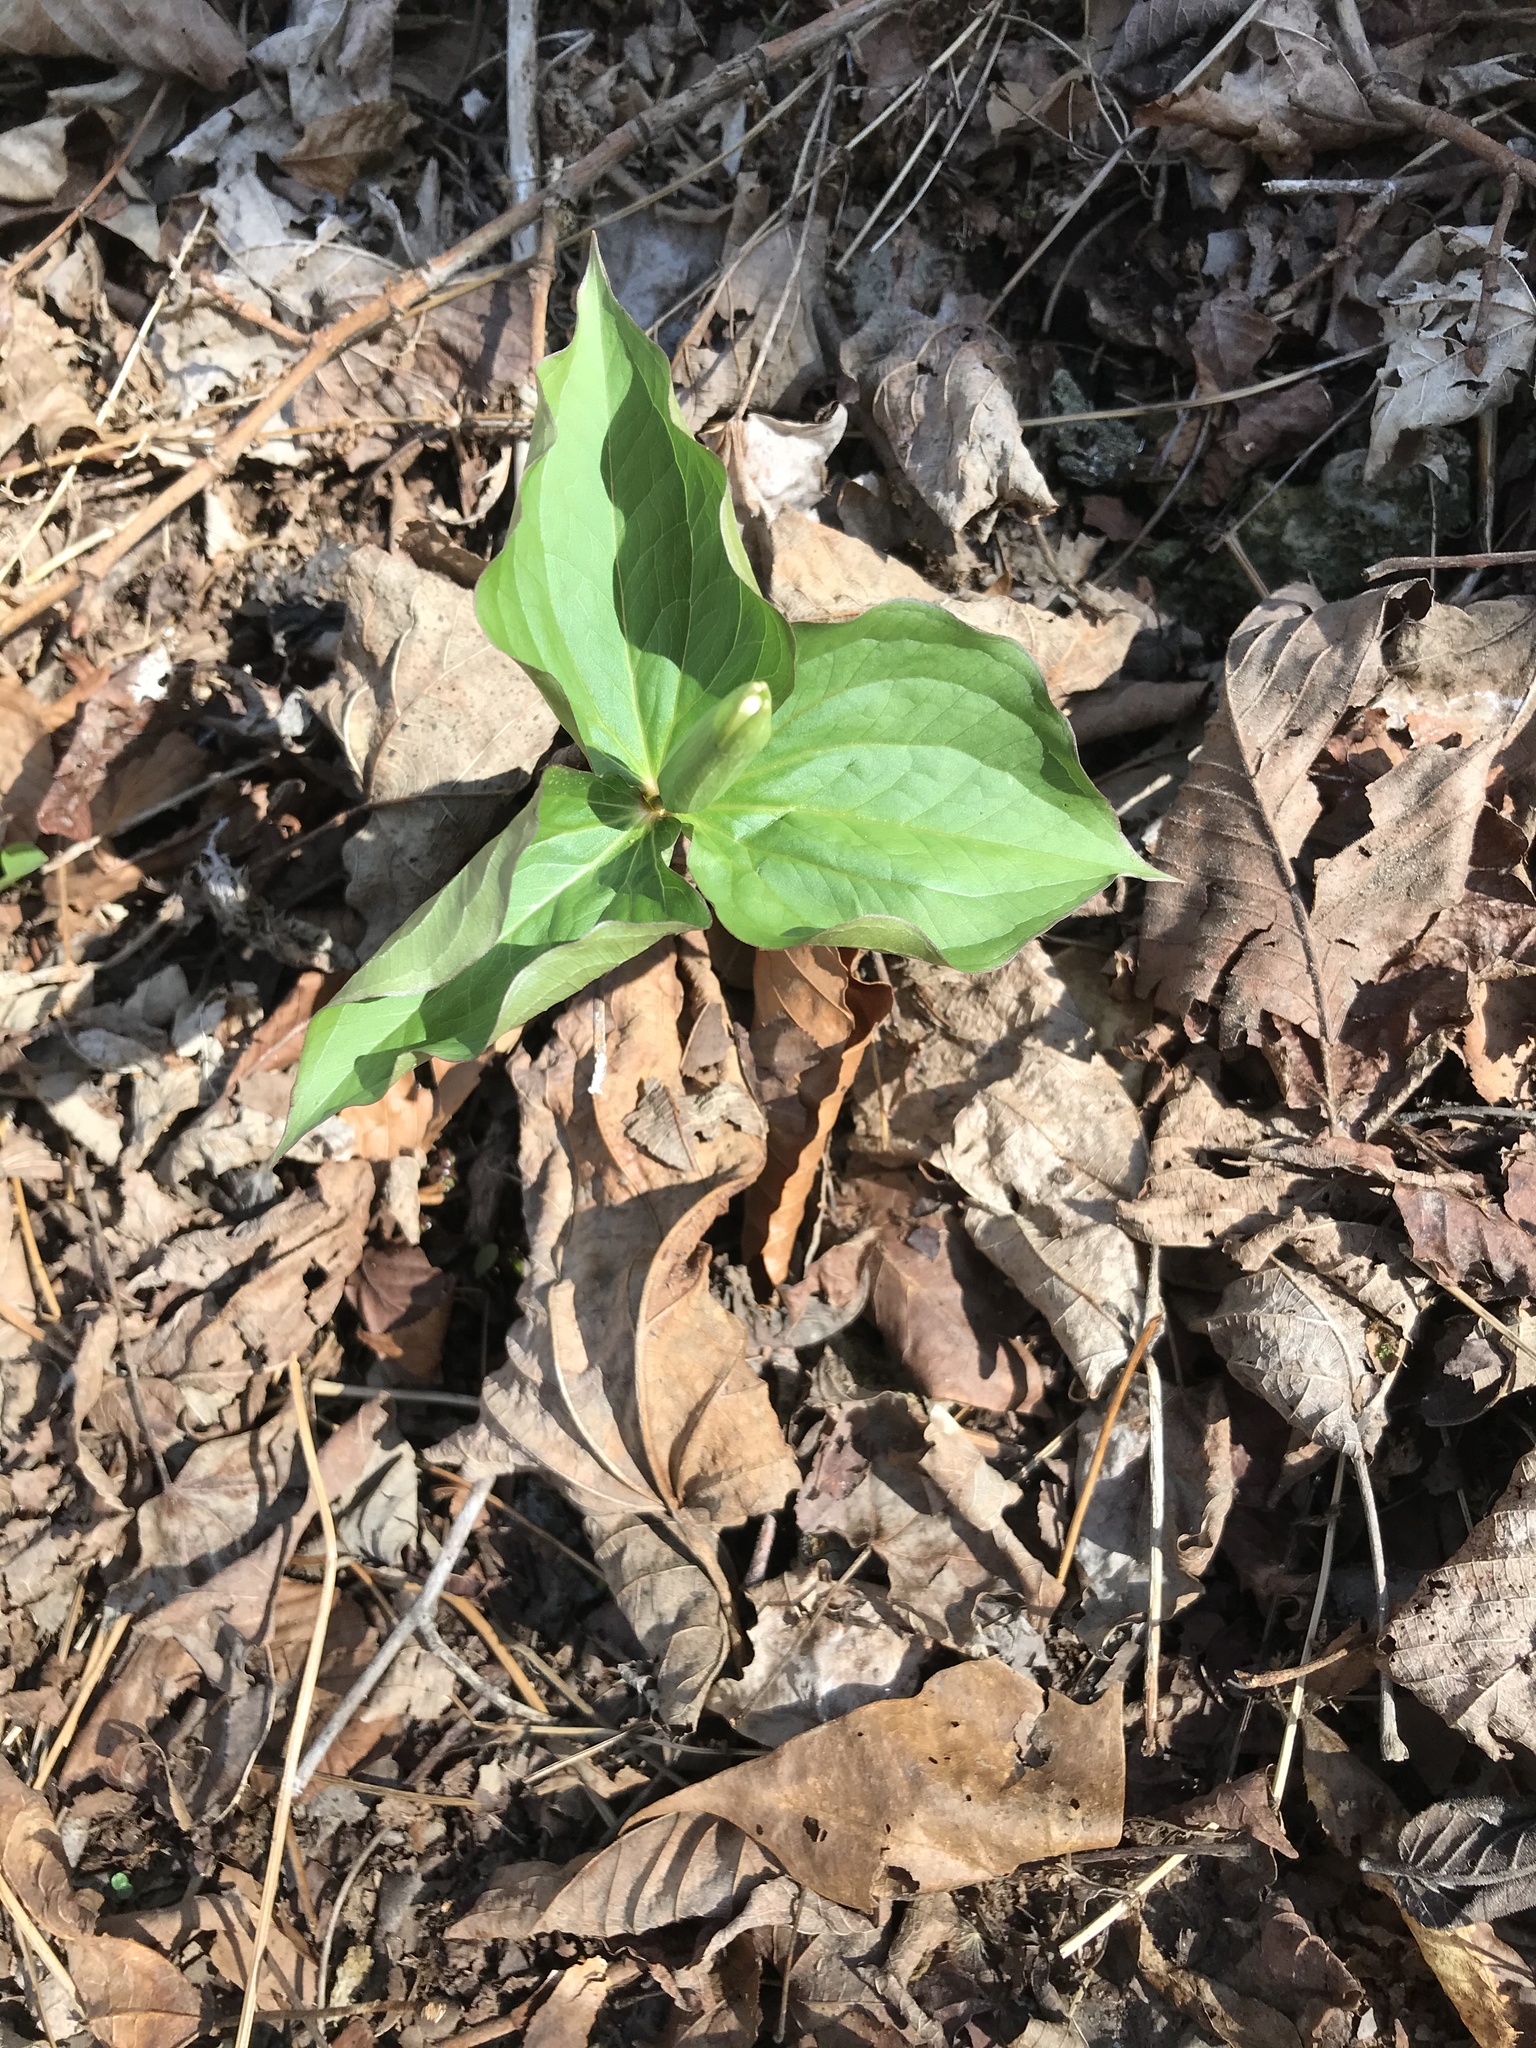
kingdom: Plantae
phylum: Tracheophyta
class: Liliopsida
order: Liliales
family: Melanthiaceae
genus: Trillium
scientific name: Trillium grandiflorum
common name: Great white trillium
